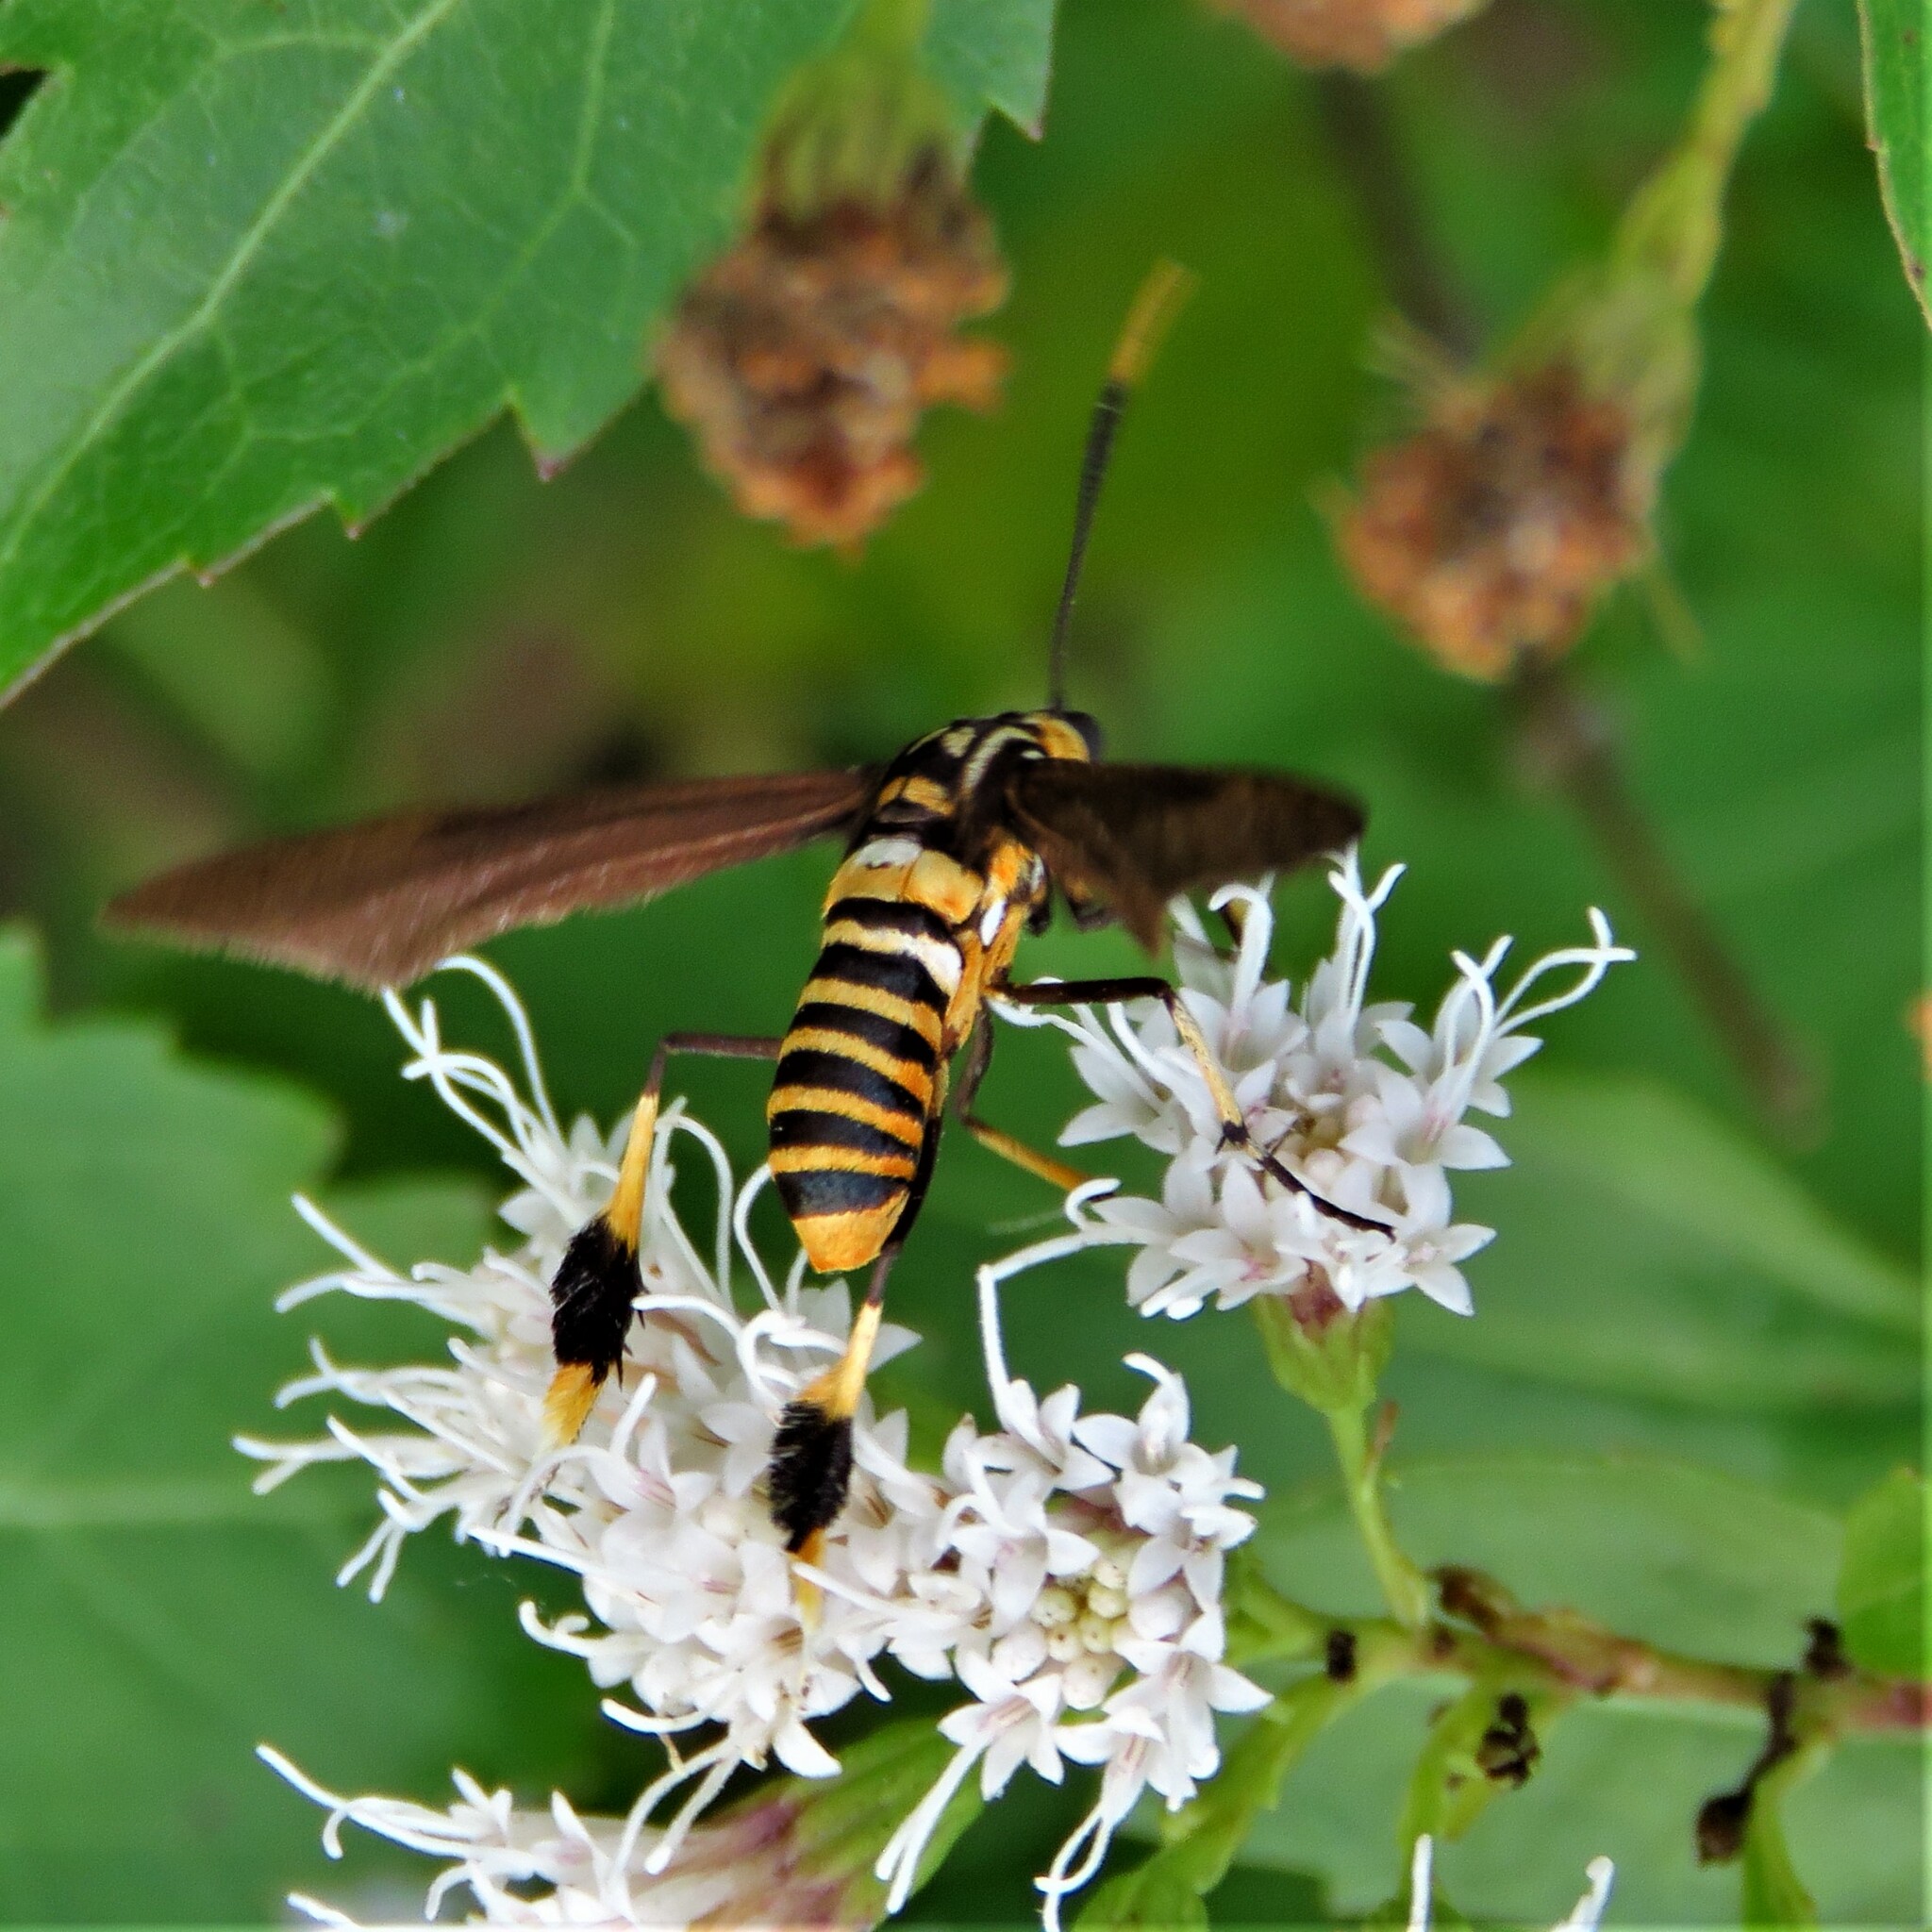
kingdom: Animalia
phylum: Arthropoda
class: Insecta
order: Lepidoptera
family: Erebidae
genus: Horama
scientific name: Horama panthalon
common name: Texas wasp moth
